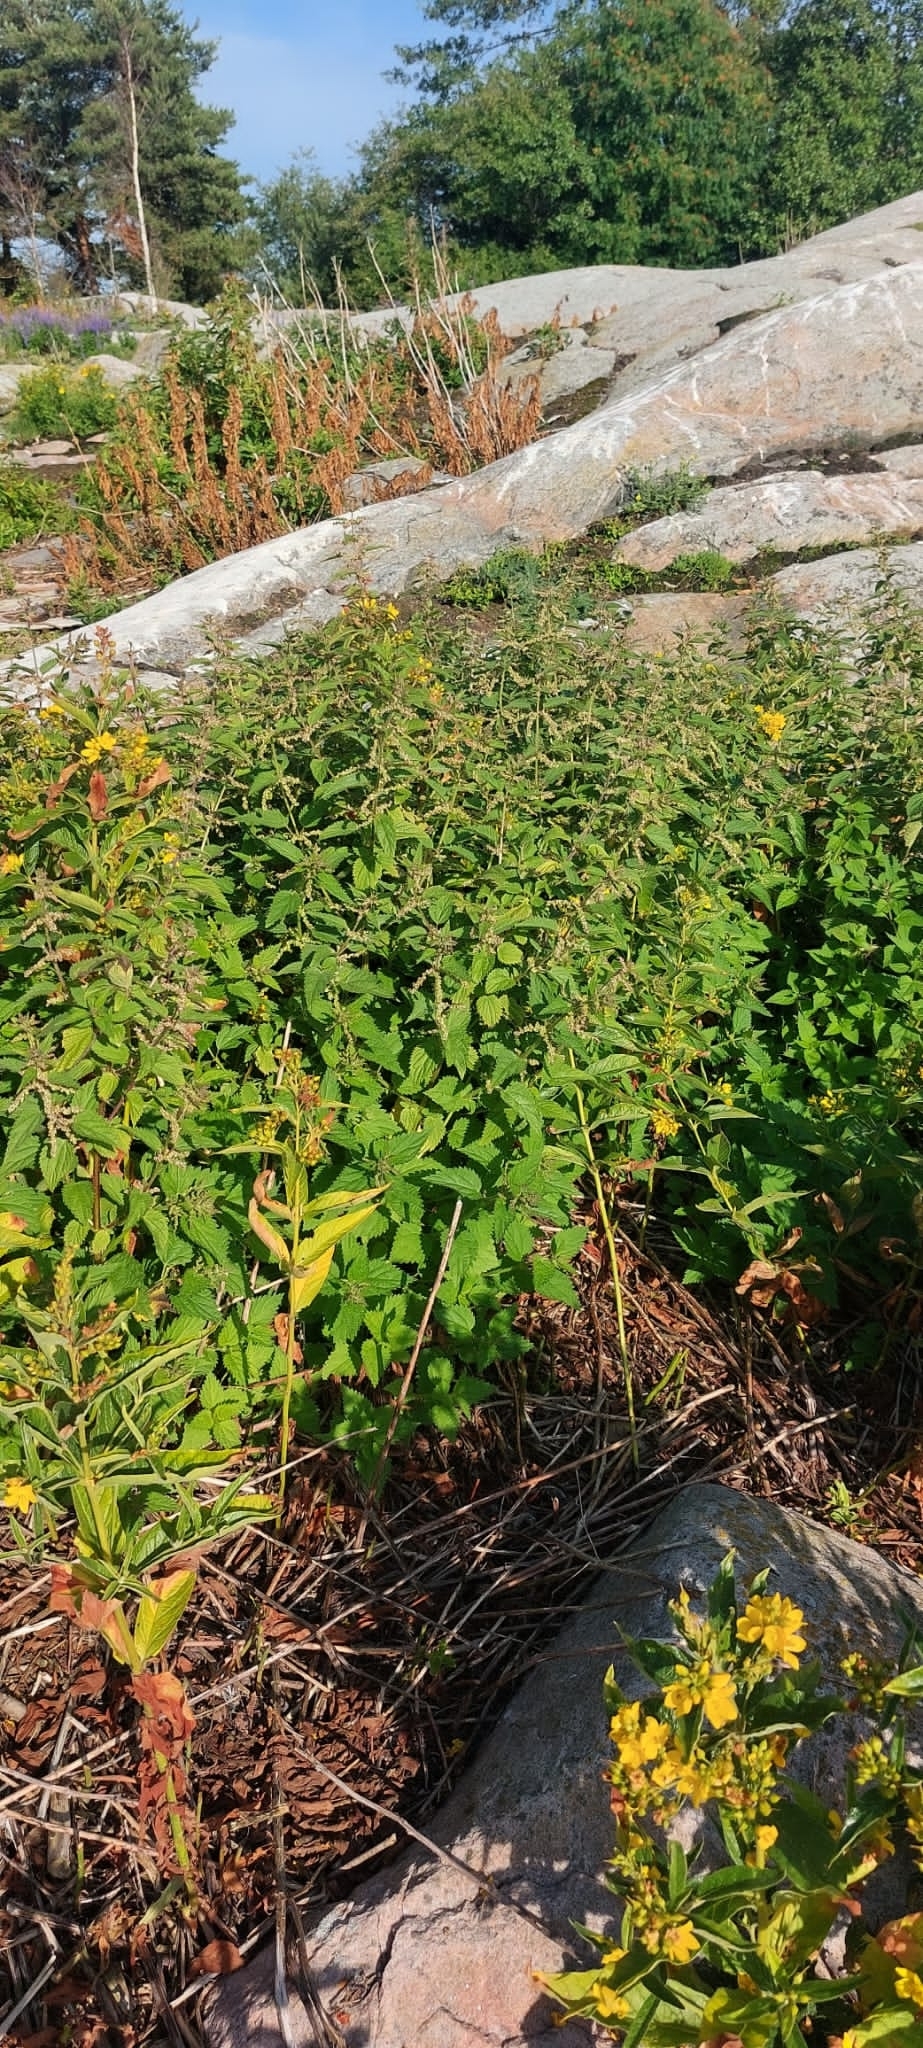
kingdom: Plantae
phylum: Tracheophyta
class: Magnoliopsida
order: Rosales
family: Urticaceae
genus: Urtica
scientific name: Urtica dioica
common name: Common nettle
